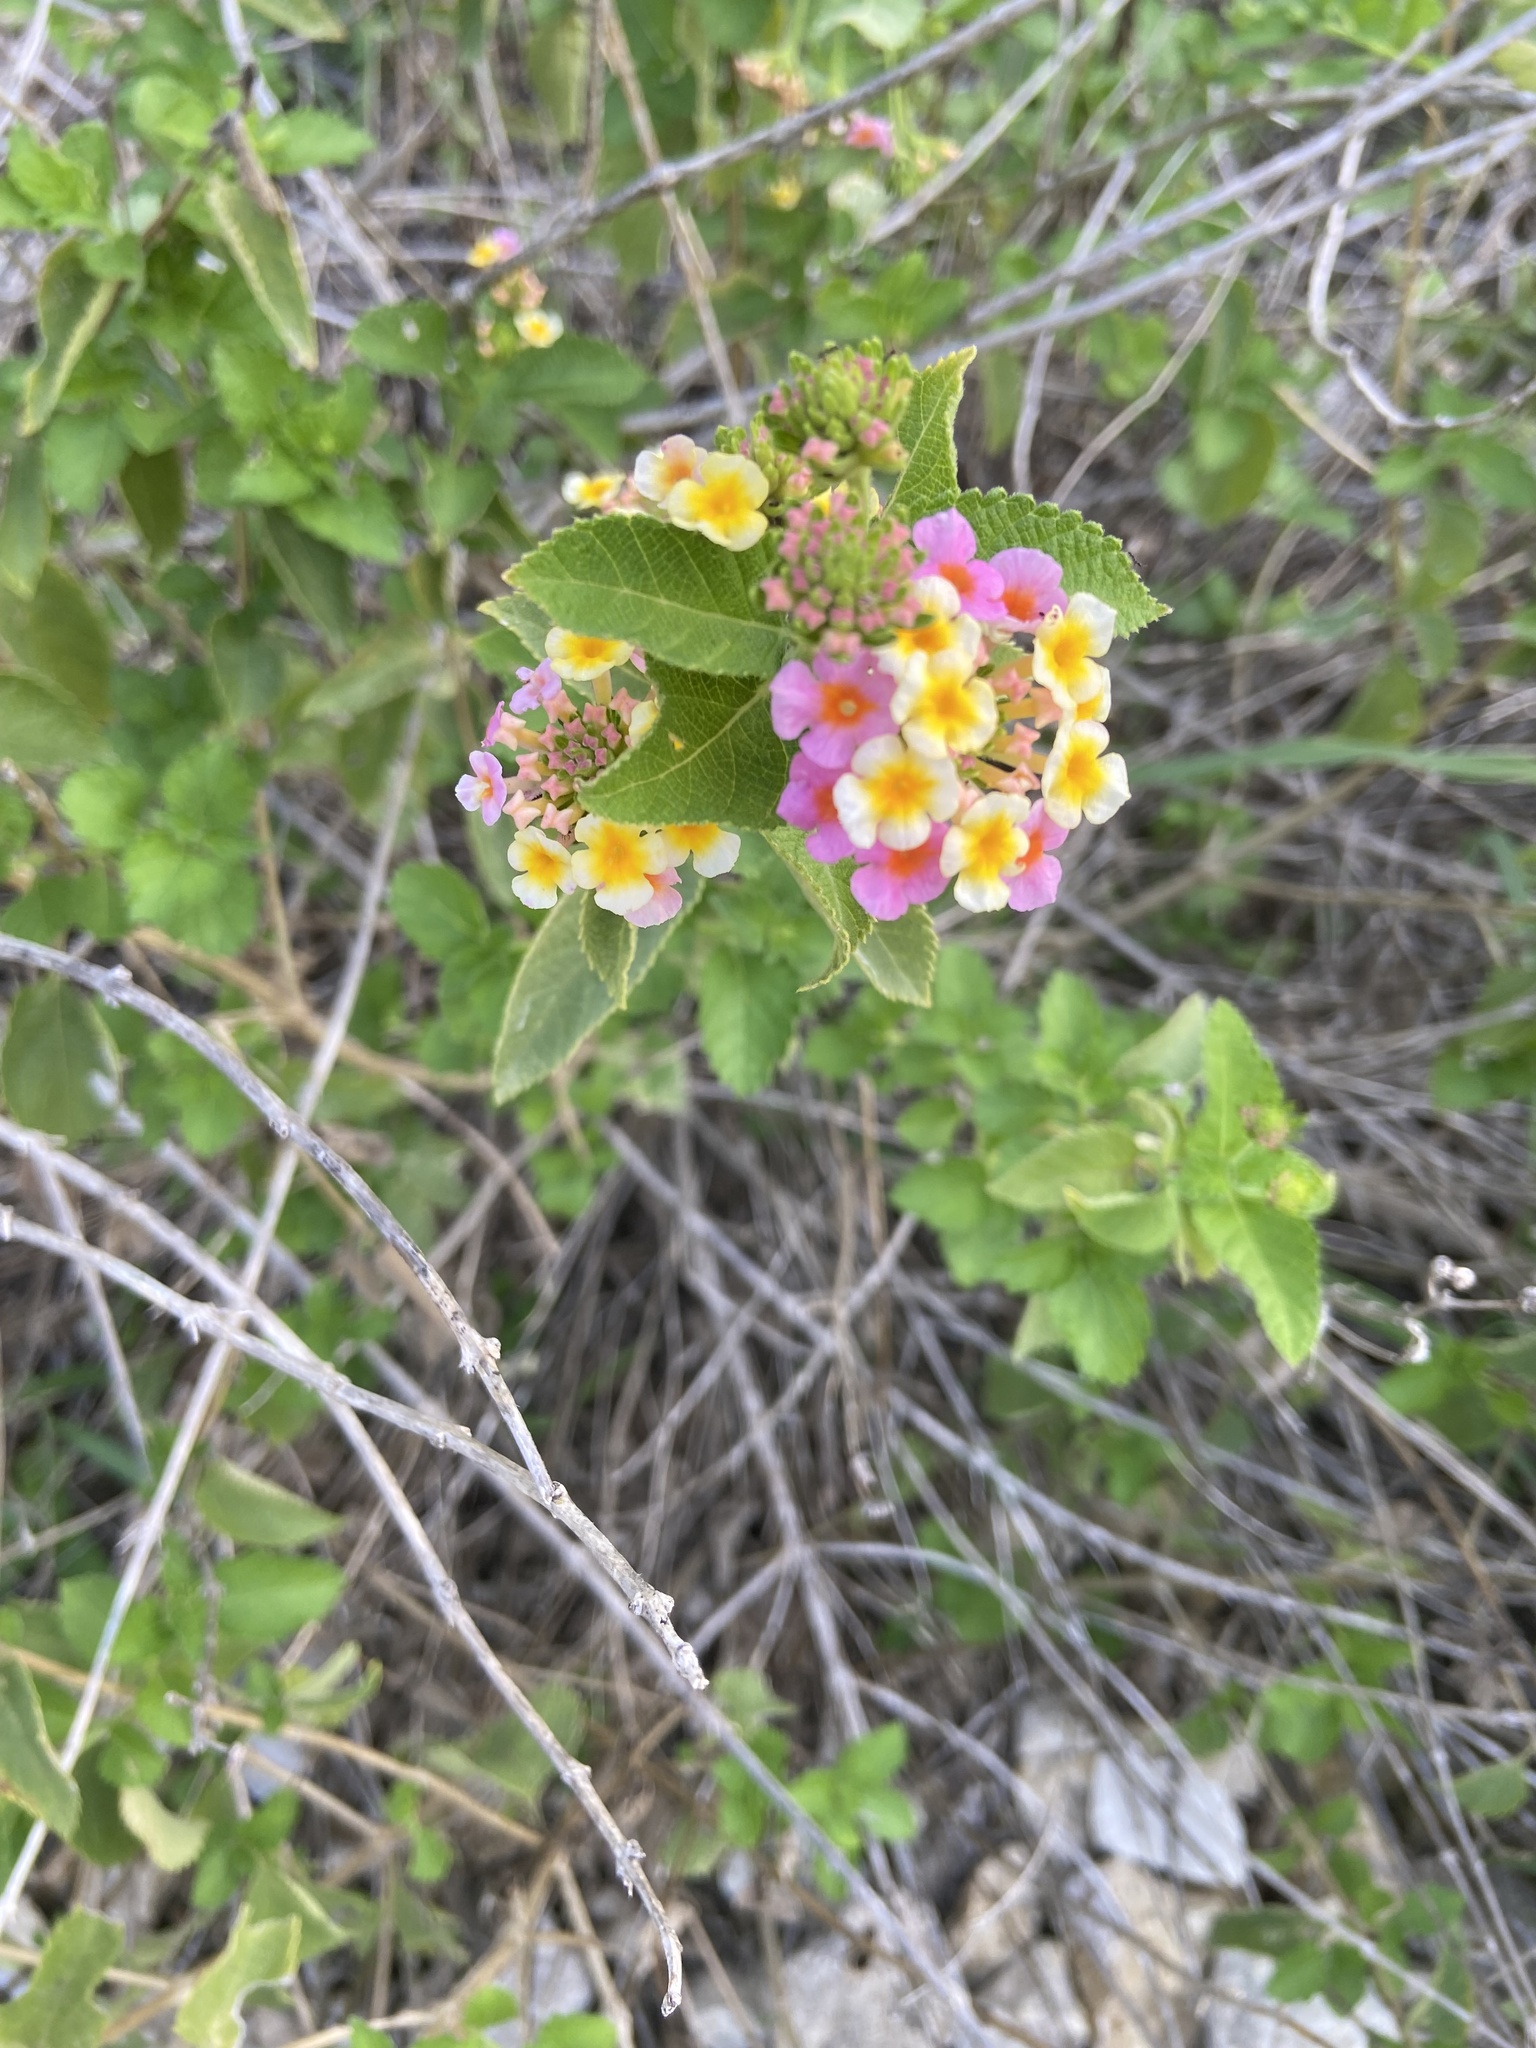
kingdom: Plantae
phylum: Tracheophyta
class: Magnoliopsida
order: Lamiales
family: Verbenaceae
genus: Lantana
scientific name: Lantana strigocamara
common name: Lantana
